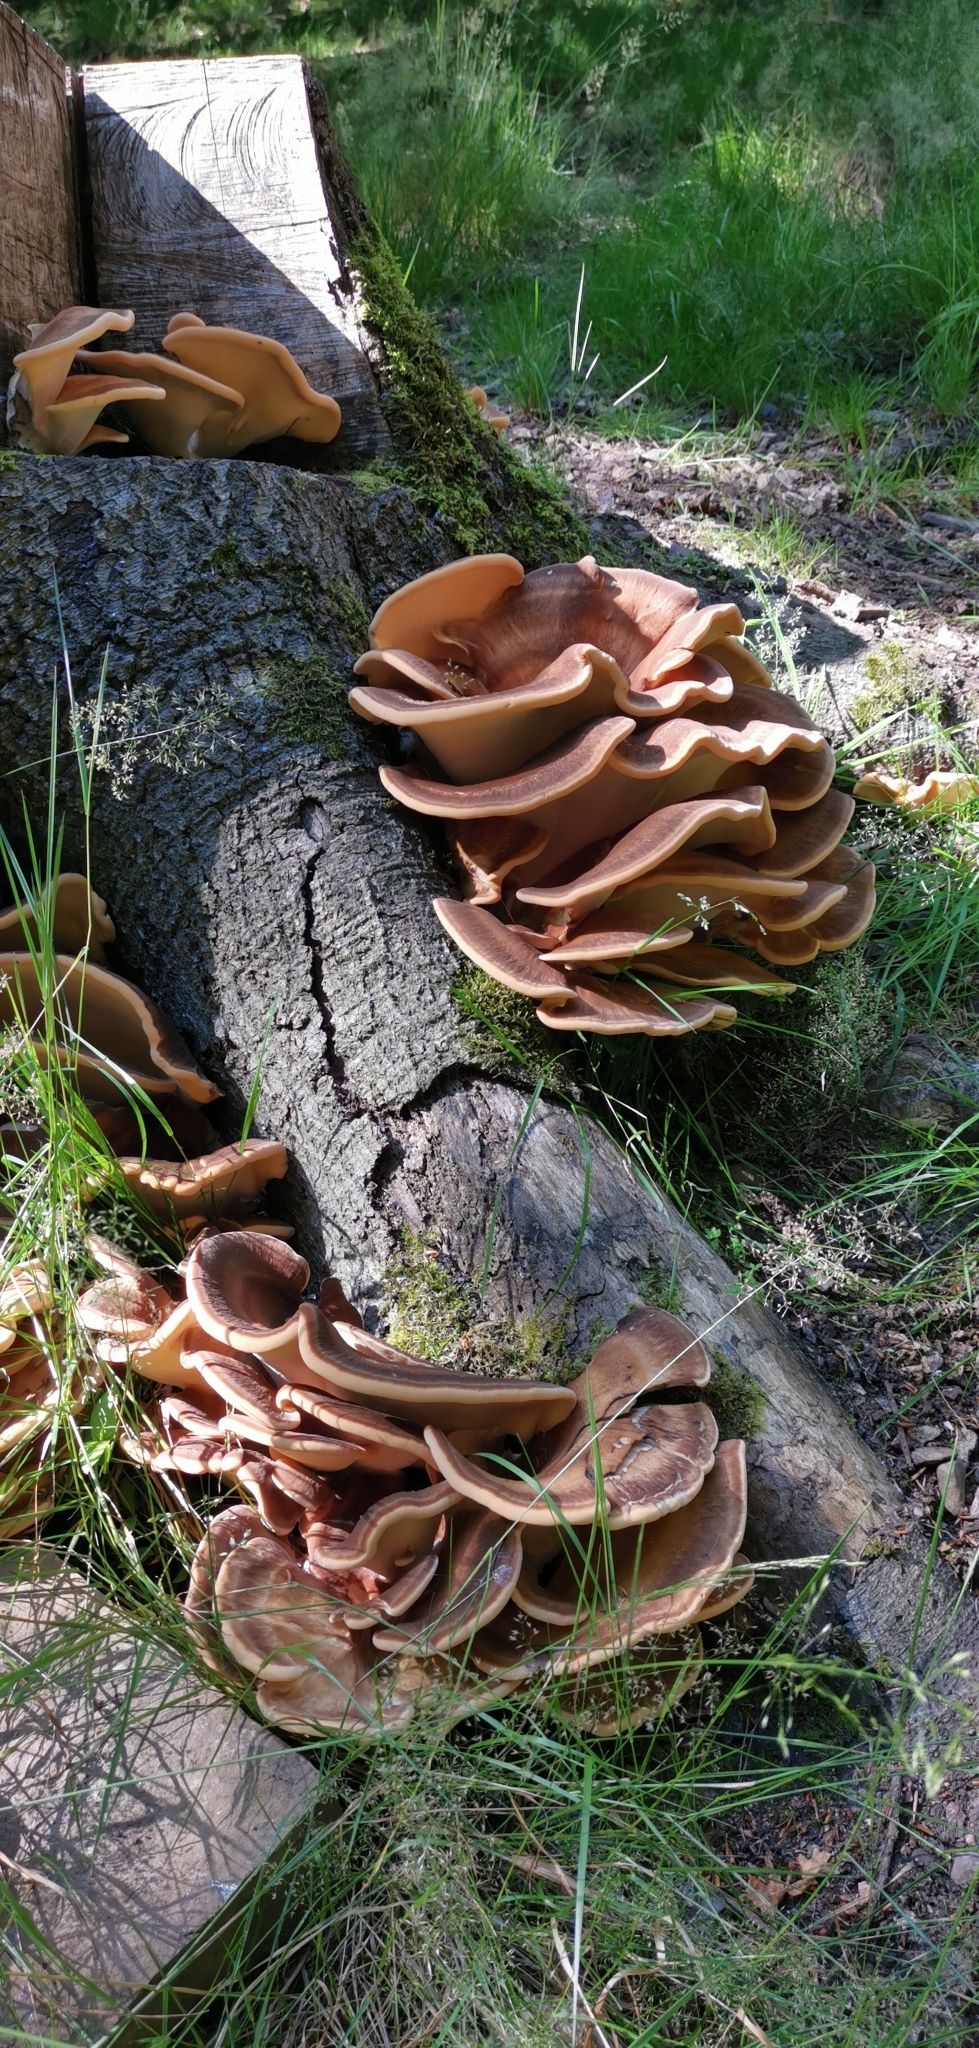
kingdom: Fungi
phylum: Basidiomycota
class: Agaricomycetes
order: Polyporales
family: Meripilaceae
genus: Meripilus
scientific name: Meripilus giganteus
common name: Giant polypore
